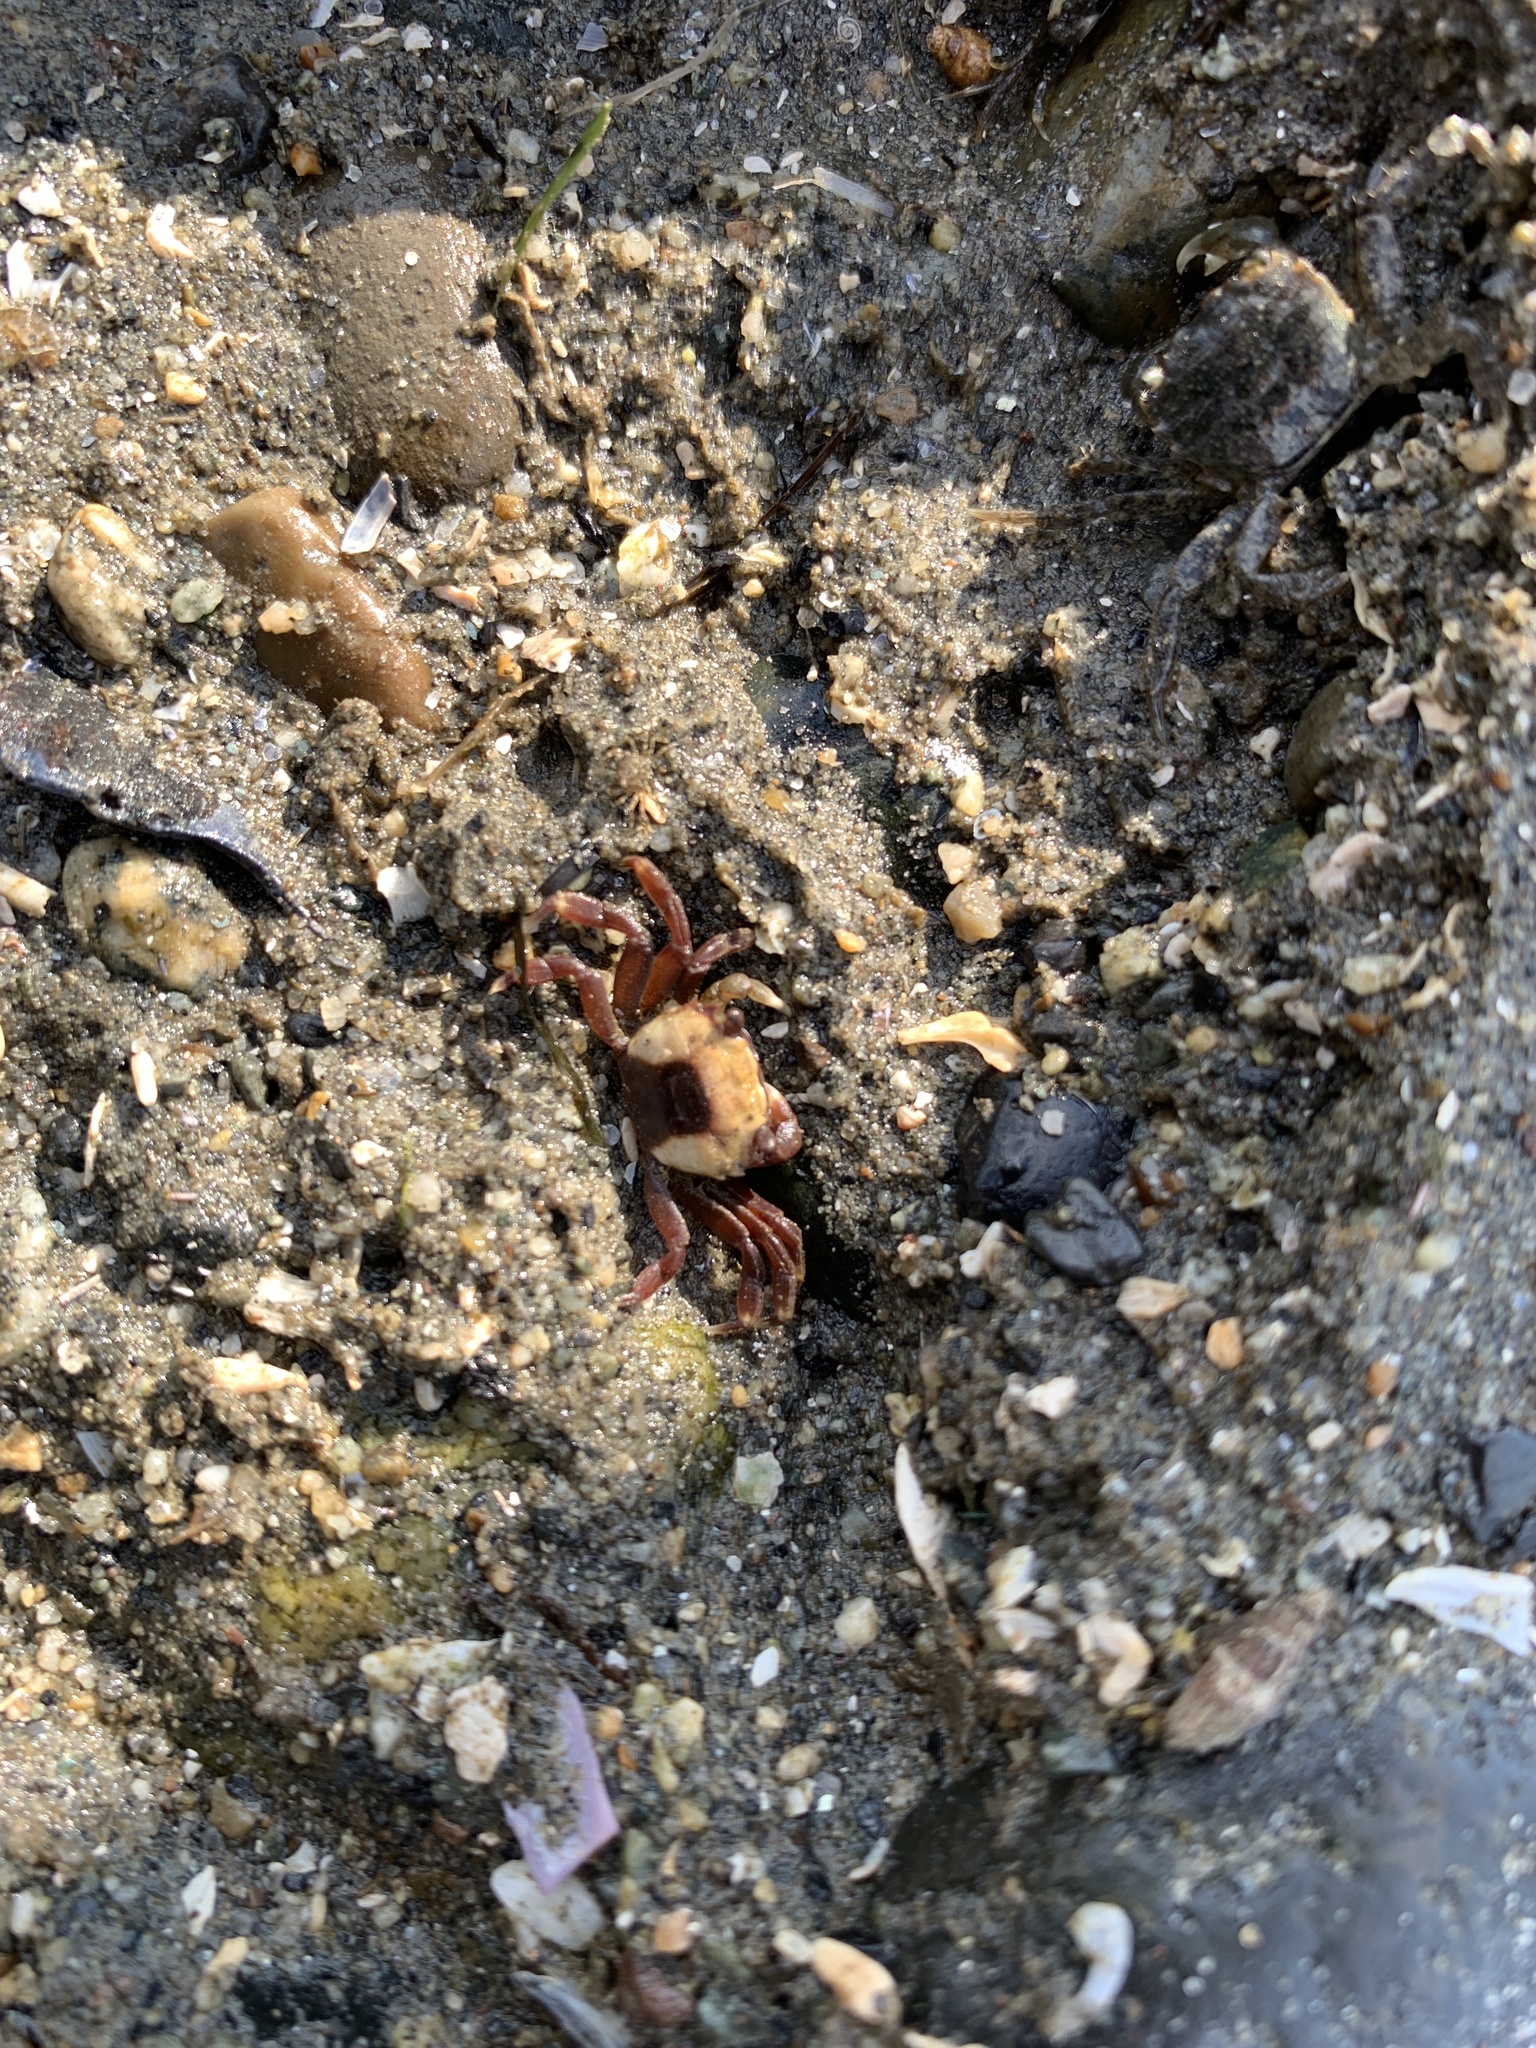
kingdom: Animalia
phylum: Arthropoda
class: Malacostraca
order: Decapoda
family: Varunidae
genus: Hemigrapsus
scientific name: Hemigrapsus oregonensis
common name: Yellow shore crab
